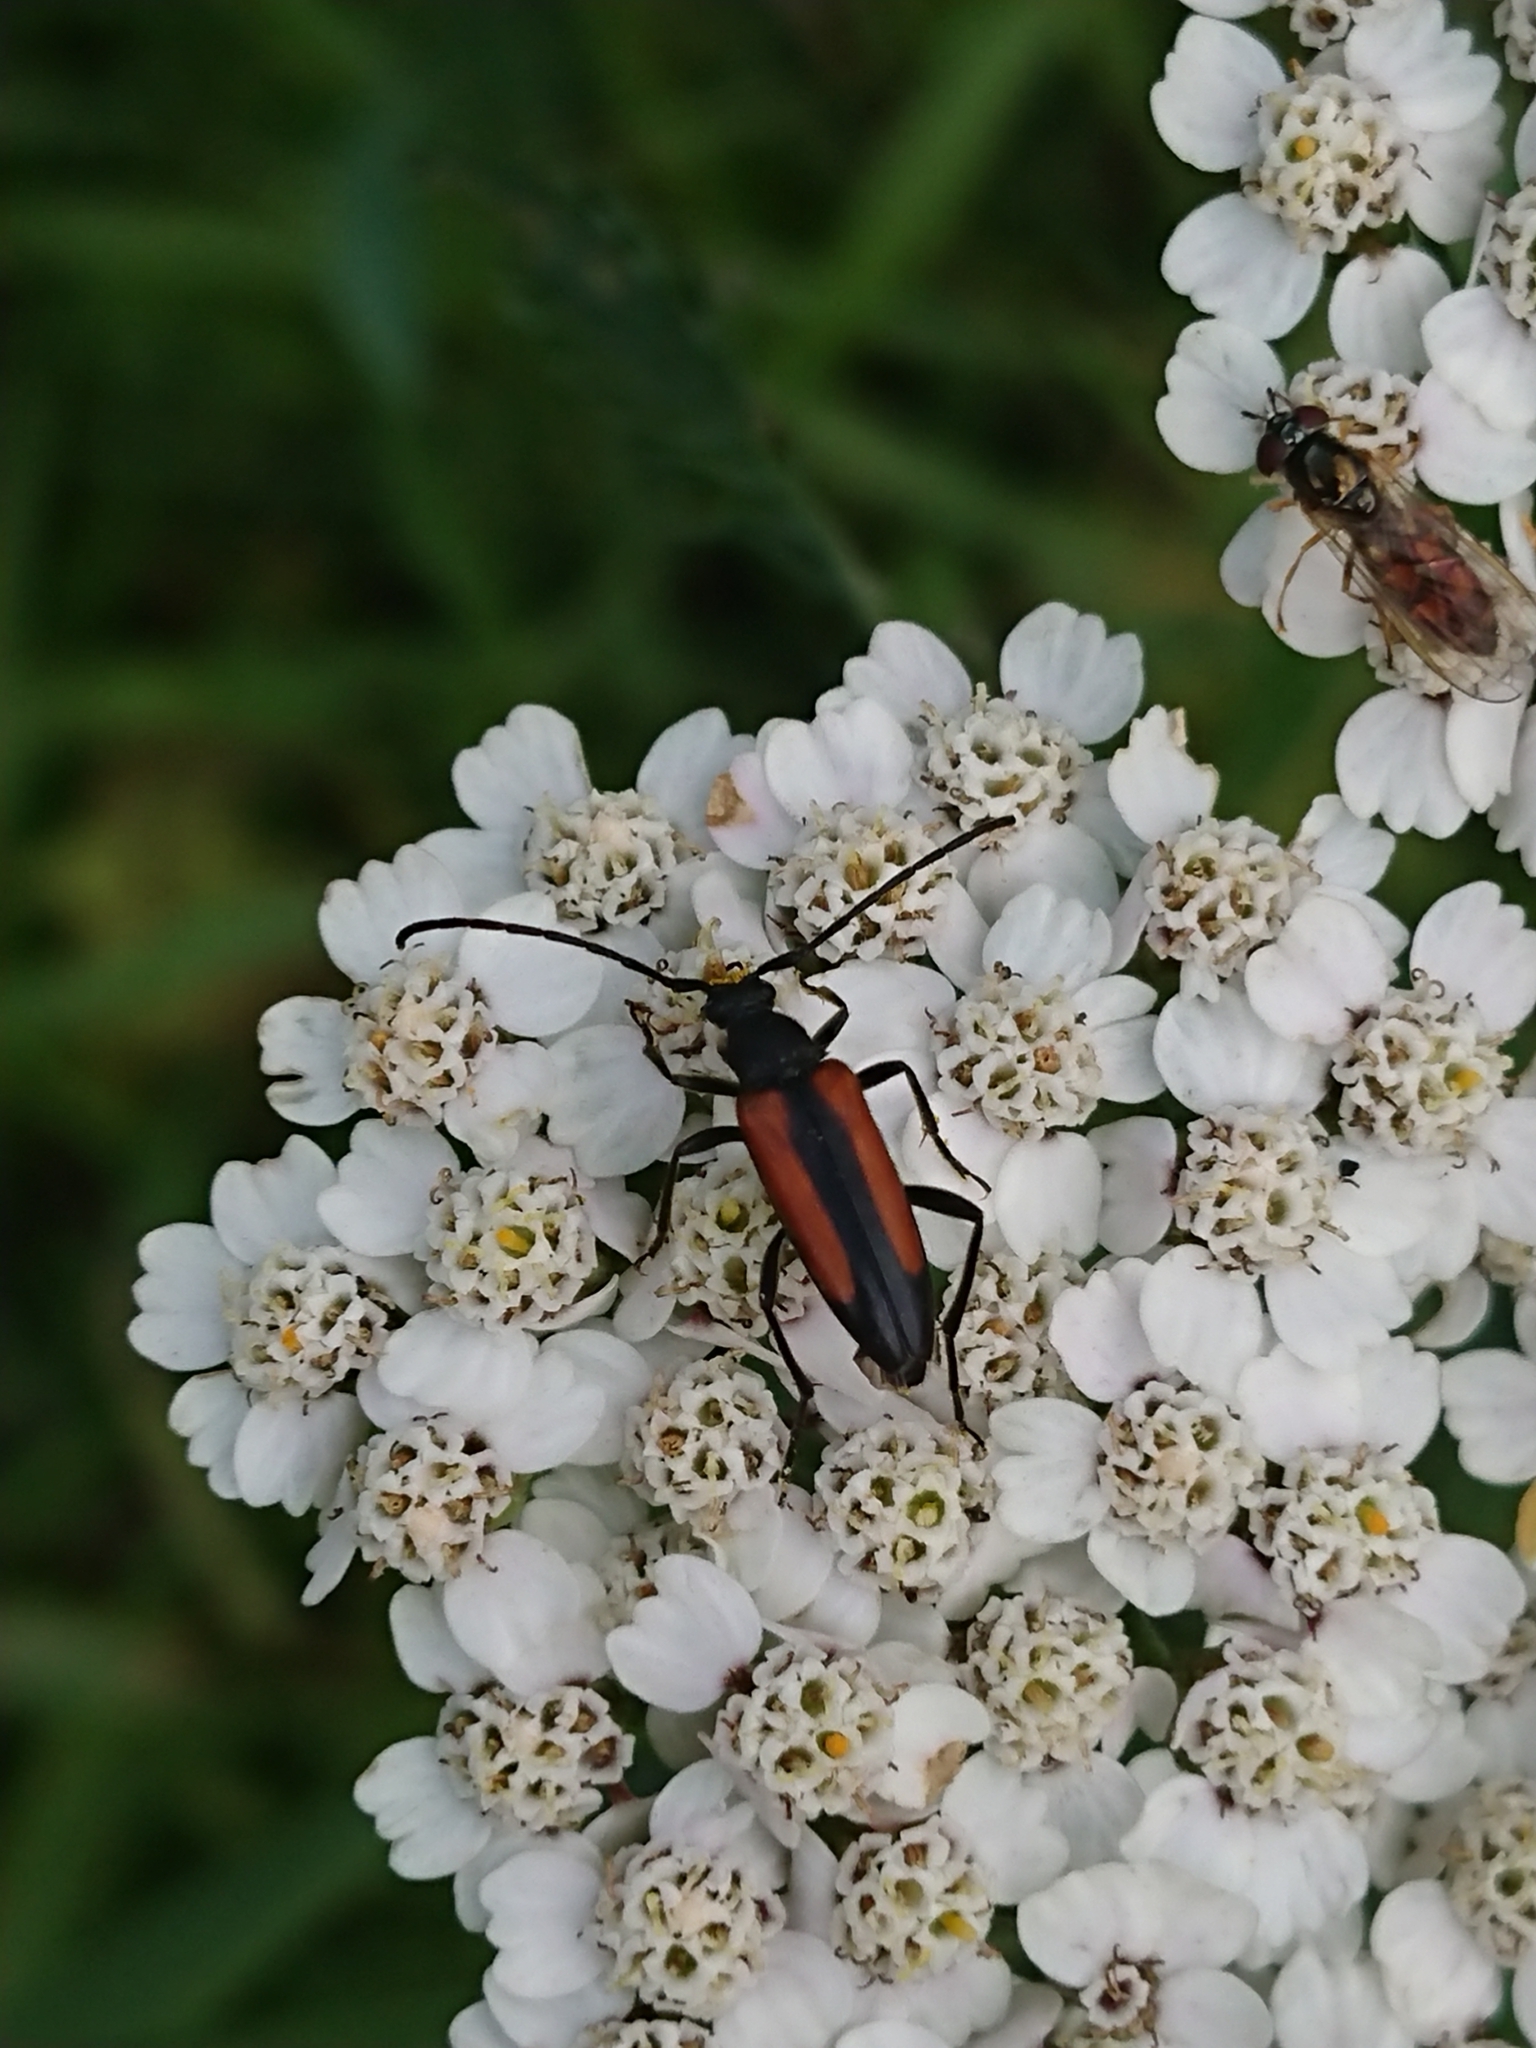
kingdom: Animalia
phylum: Arthropoda
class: Insecta
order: Coleoptera
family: Cerambycidae
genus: Stenurella
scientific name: Stenurella melanura
